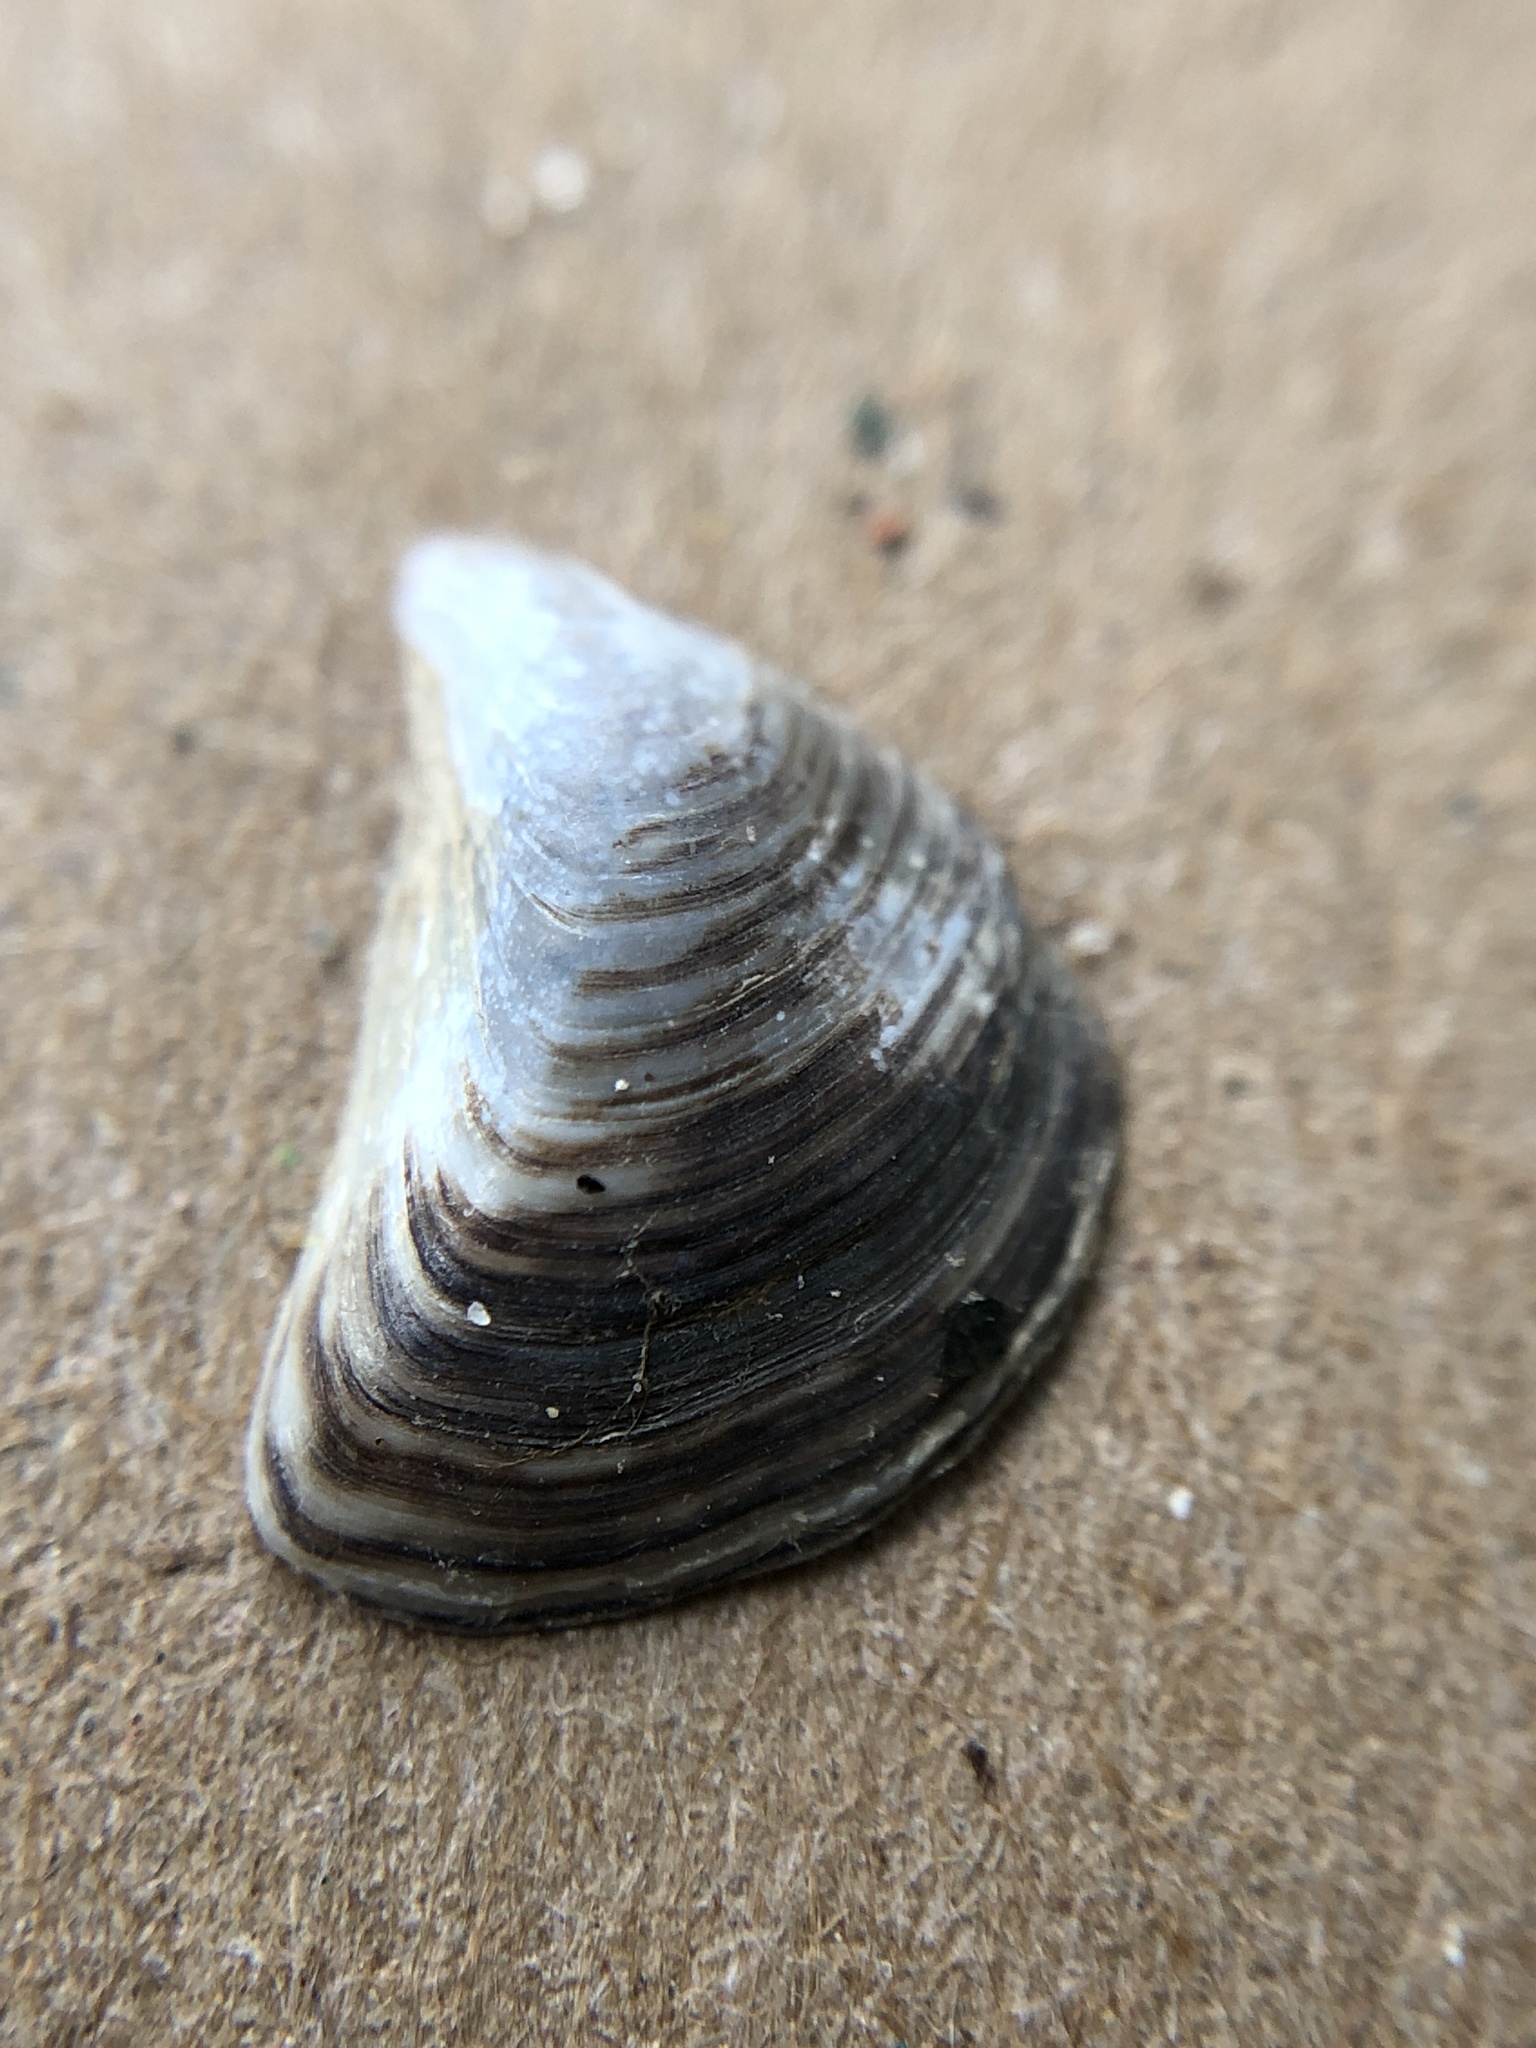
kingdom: Animalia
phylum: Mollusca
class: Bivalvia
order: Myida
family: Dreissenidae
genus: Dreissena
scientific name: Dreissena bugensis
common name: Quagga mussel
